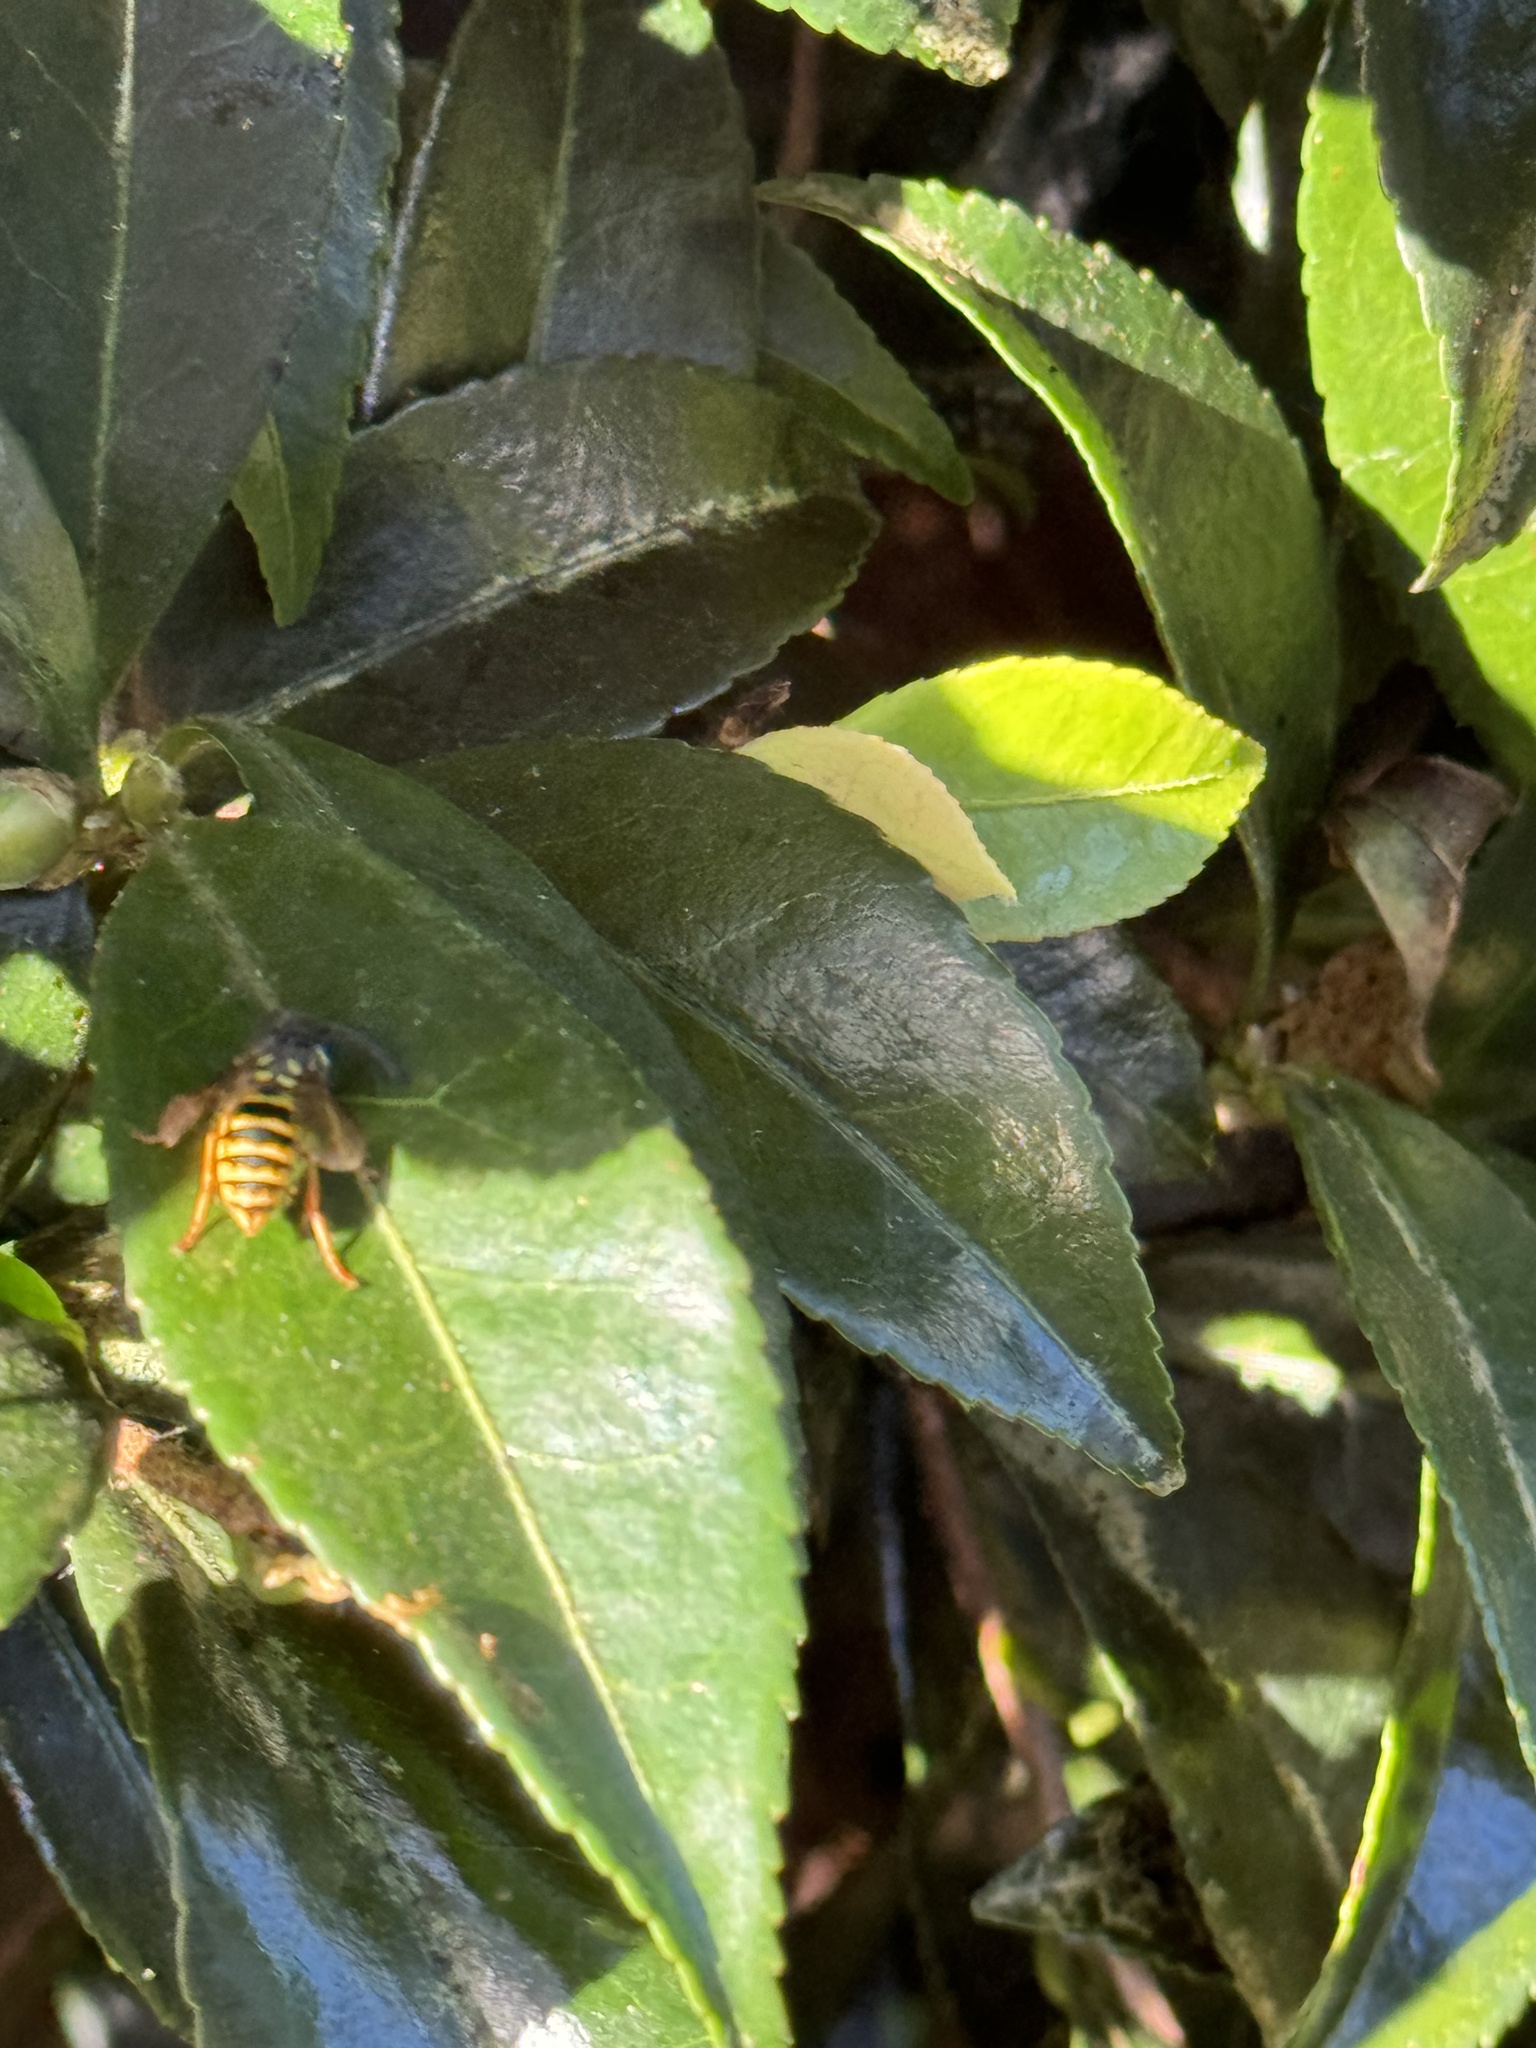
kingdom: Animalia
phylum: Arthropoda
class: Insecta
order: Hymenoptera
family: Vespidae
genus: Vespula
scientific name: Vespula vulgaris
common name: Common wasp
